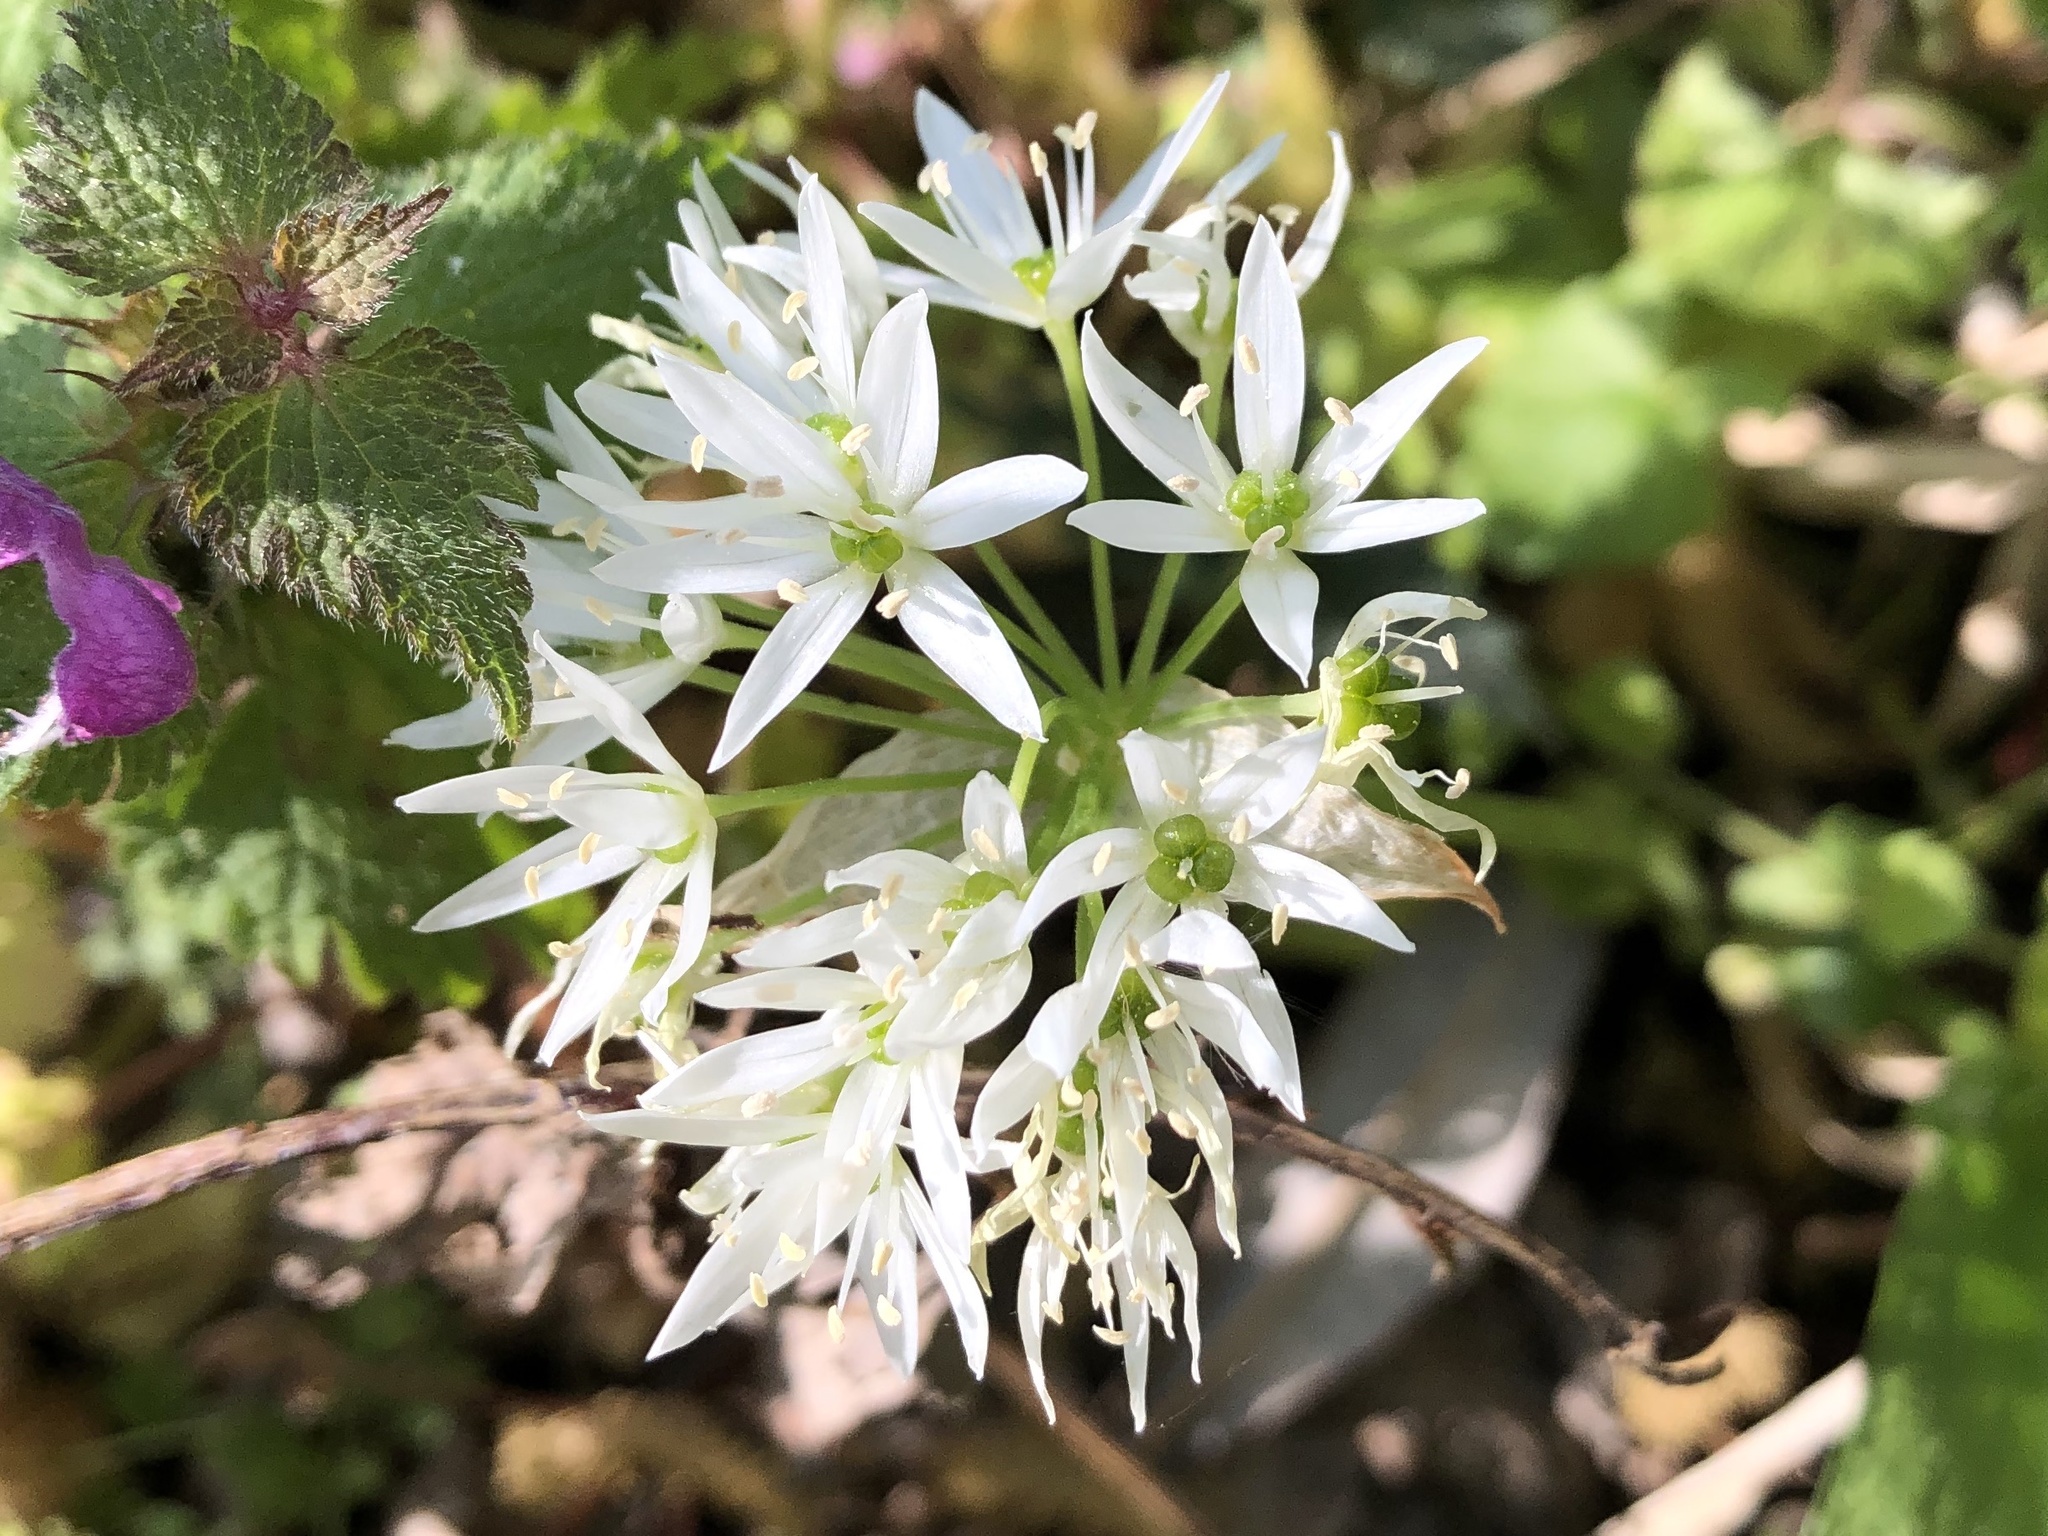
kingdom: Plantae
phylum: Tracheophyta
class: Liliopsida
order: Asparagales
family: Amaryllidaceae
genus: Allium
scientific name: Allium ursinum
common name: Ramsons
